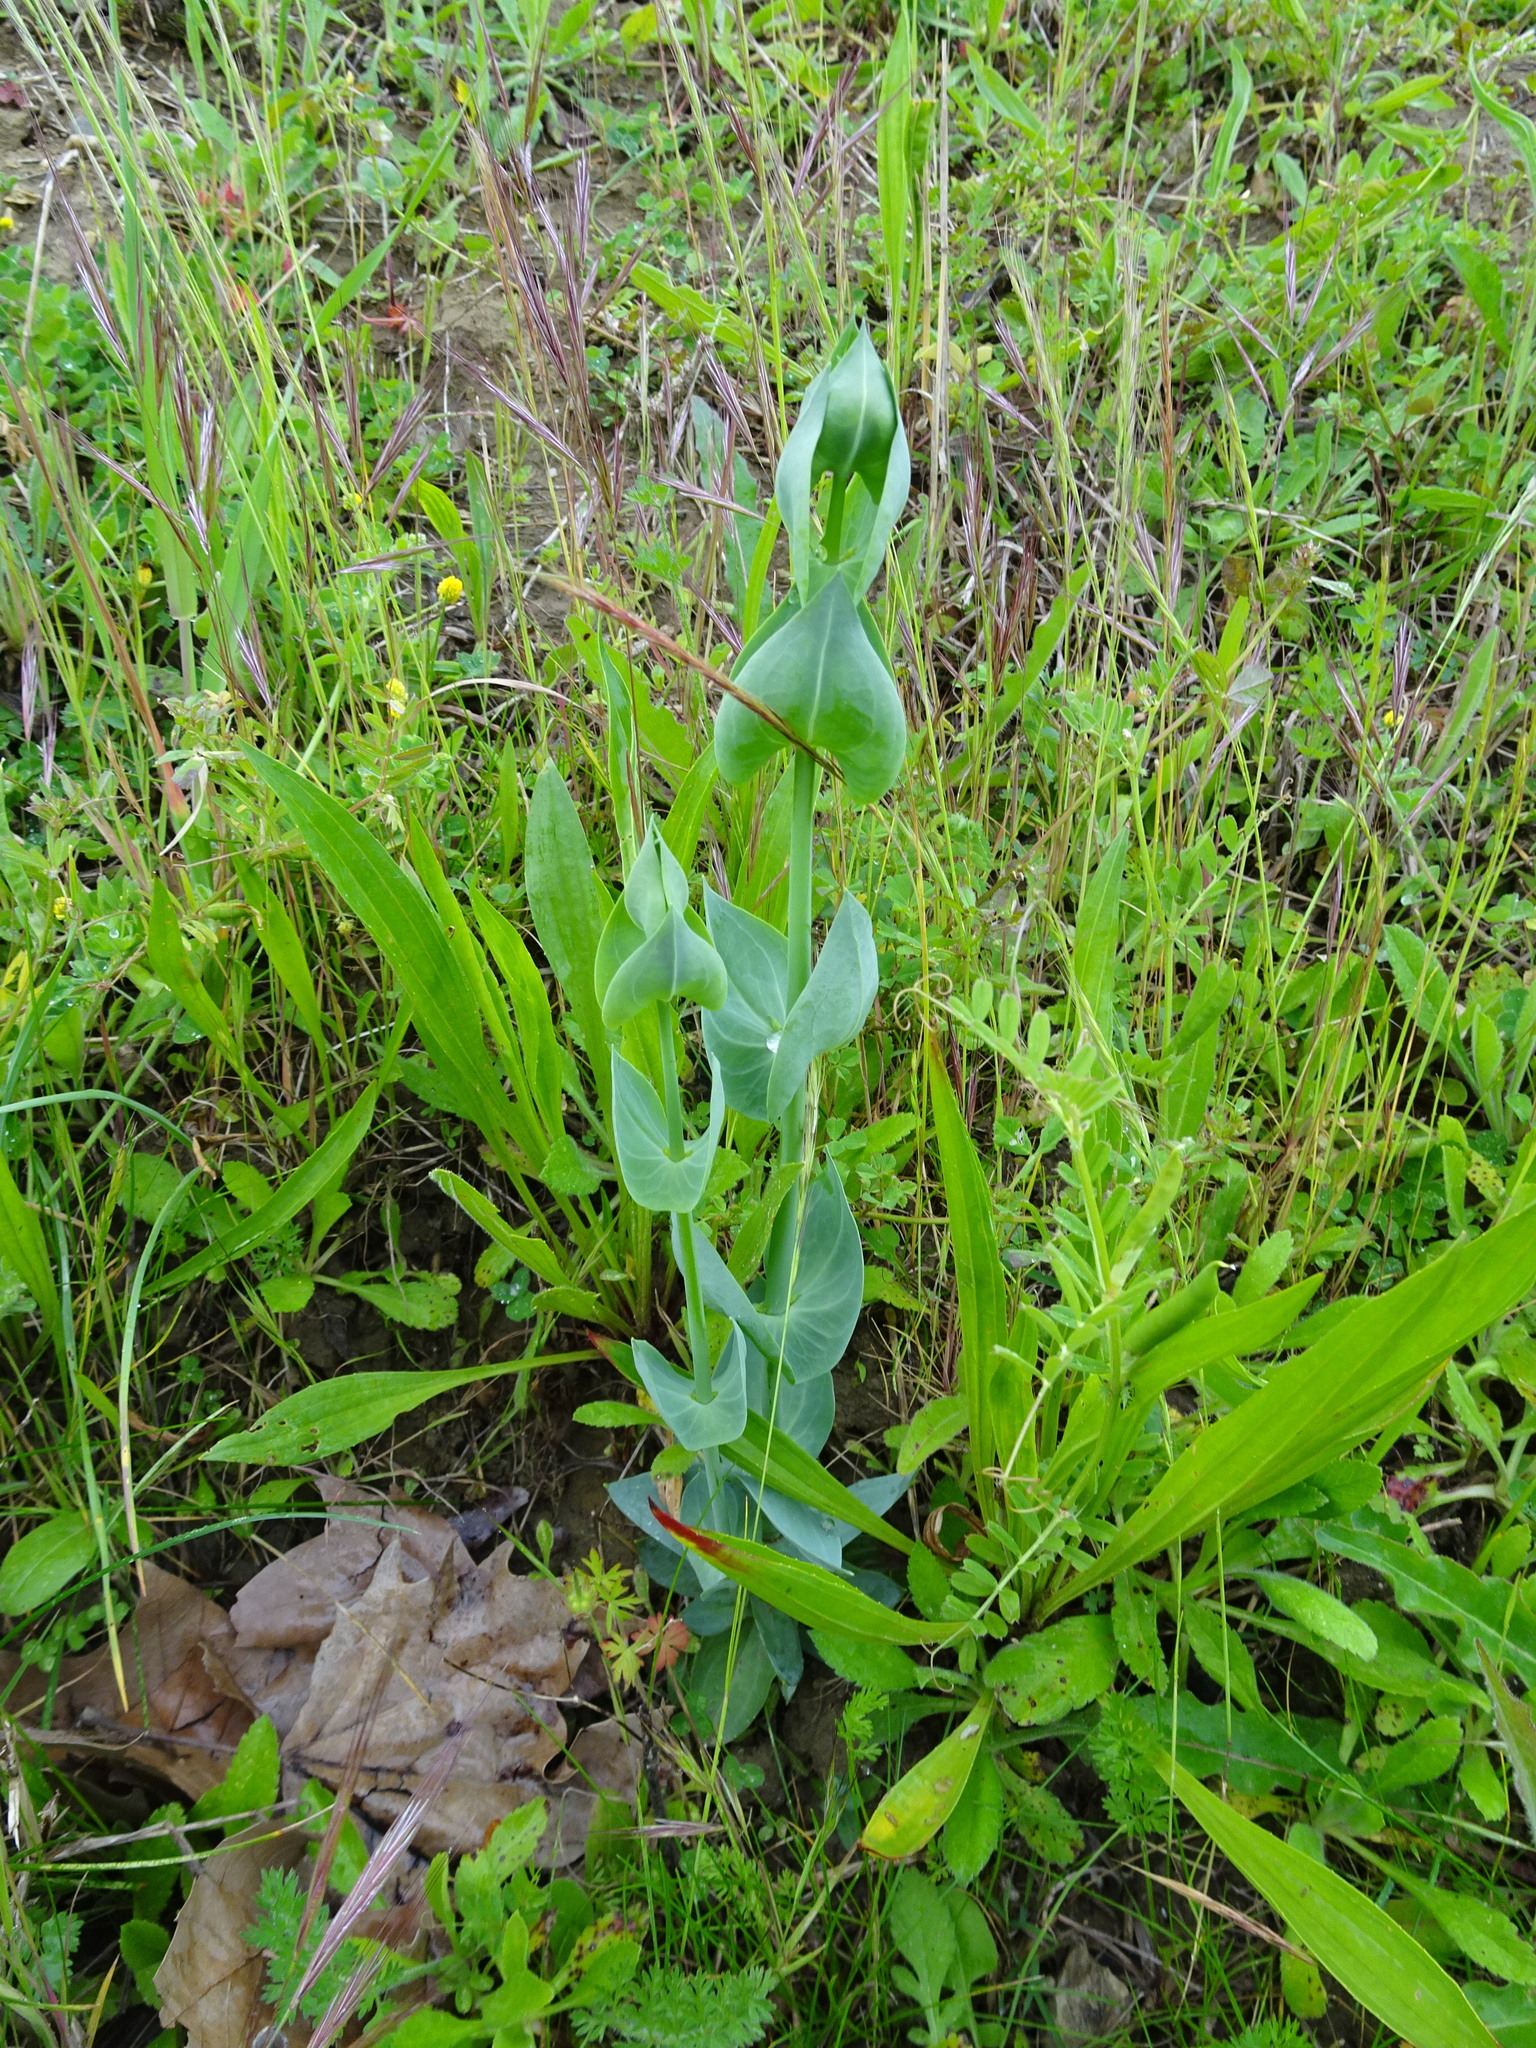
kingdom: Plantae
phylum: Tracheophyta
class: Magnoliopsida
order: Gentianales
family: Gentianaceae
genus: Blackstonia
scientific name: Blackstonia perfoliata
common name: Yellow-wort
